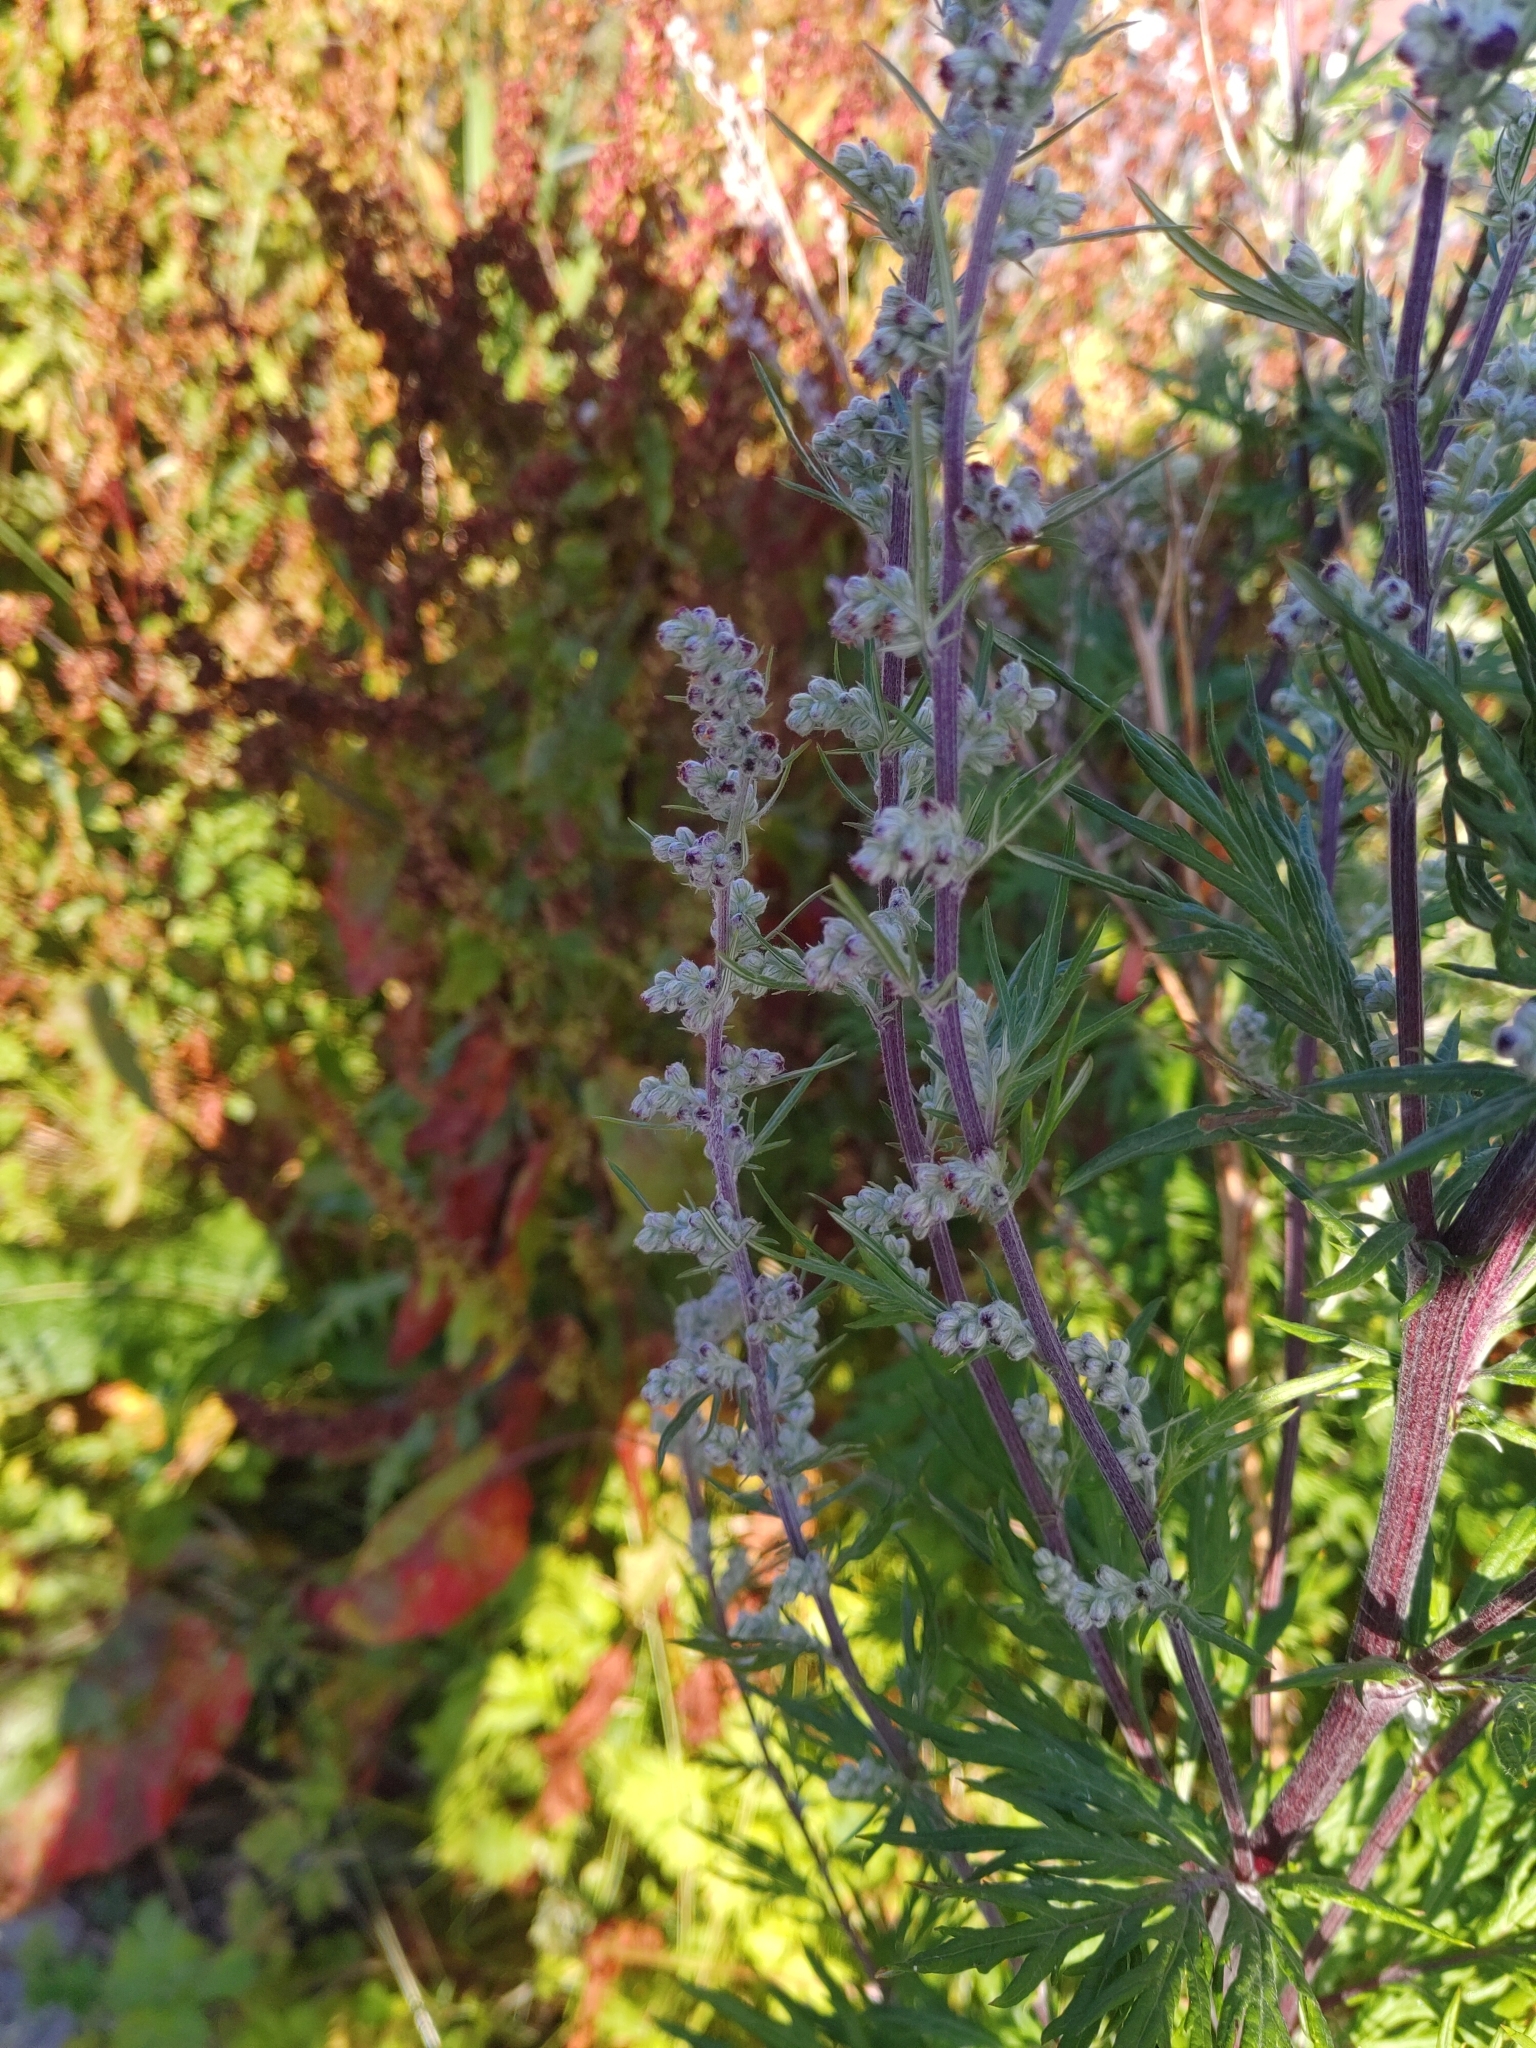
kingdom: Plantae
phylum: Tracheophyta
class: Magnoliopsida
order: Asterales
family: Asteraceae
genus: Artemisia
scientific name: Artemisia vulgaris
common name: Mugwort
